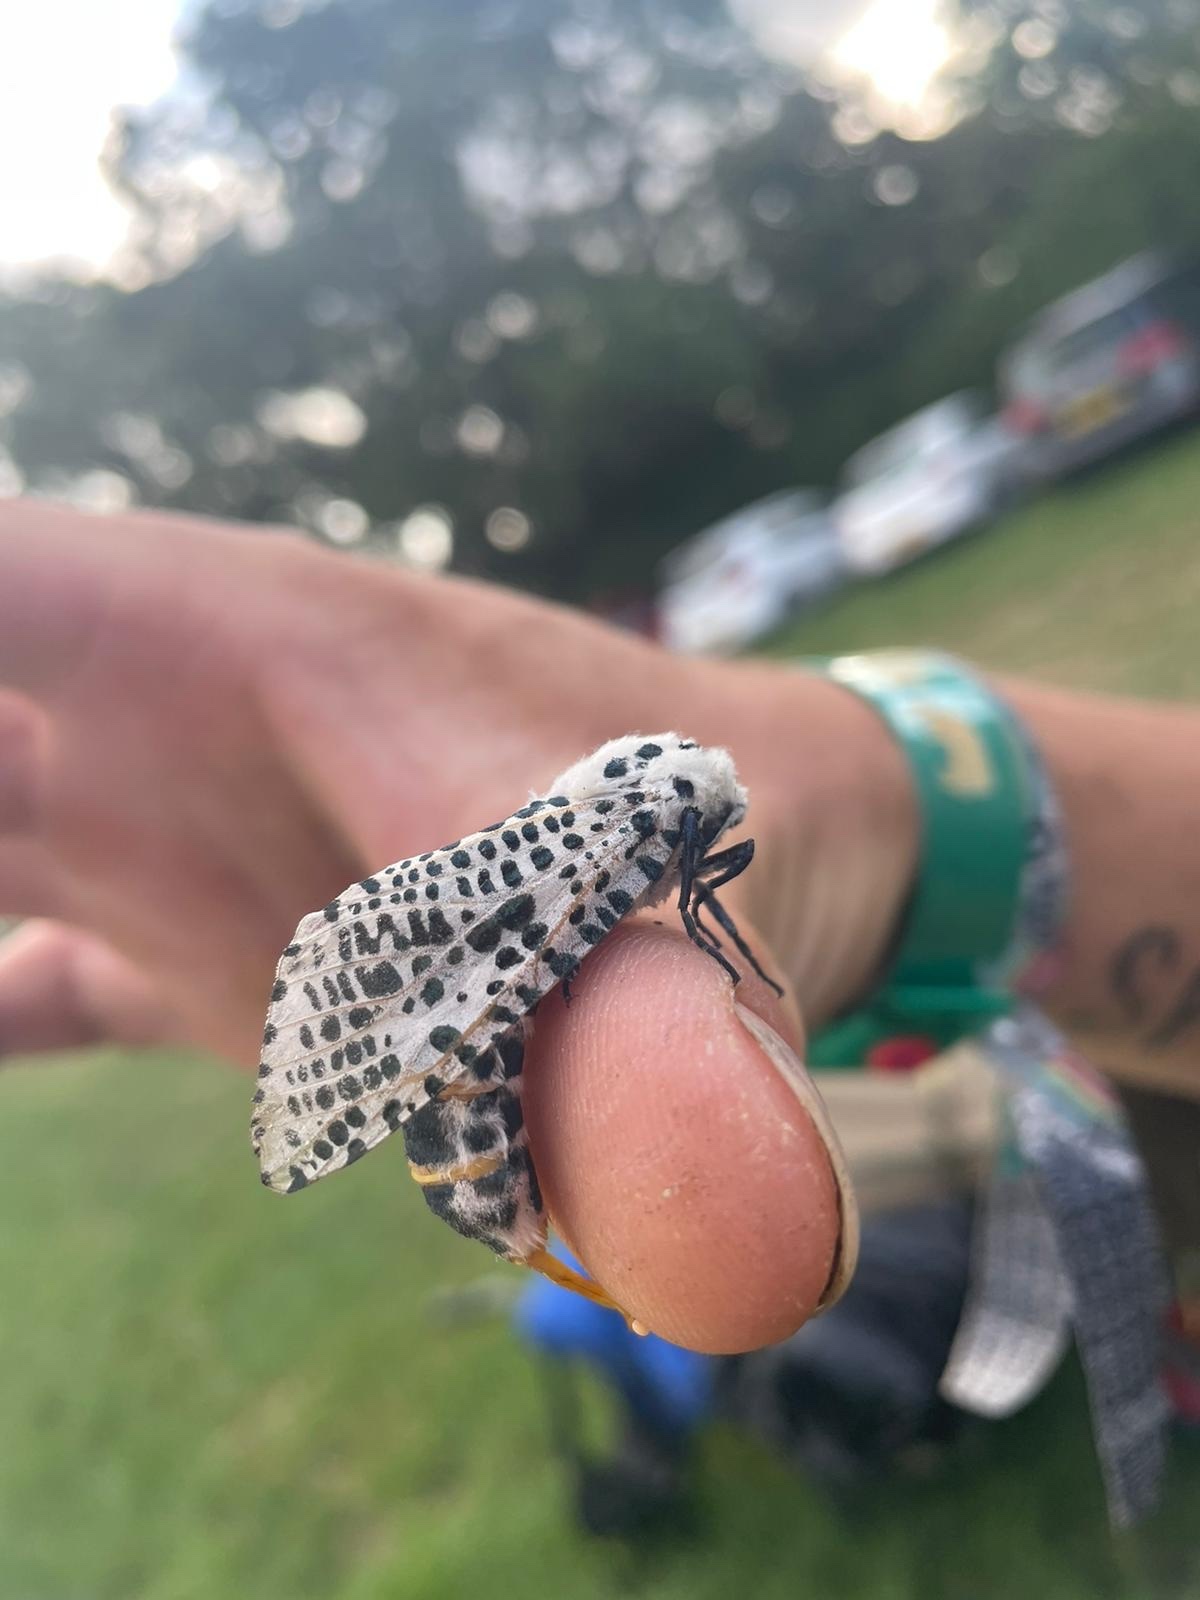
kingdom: Animalia
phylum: Arthropoda
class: Insecta
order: Lepidoptera
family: Cossidae
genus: Zeuzera
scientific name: Zeuzera pyrina
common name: Leopard moth
